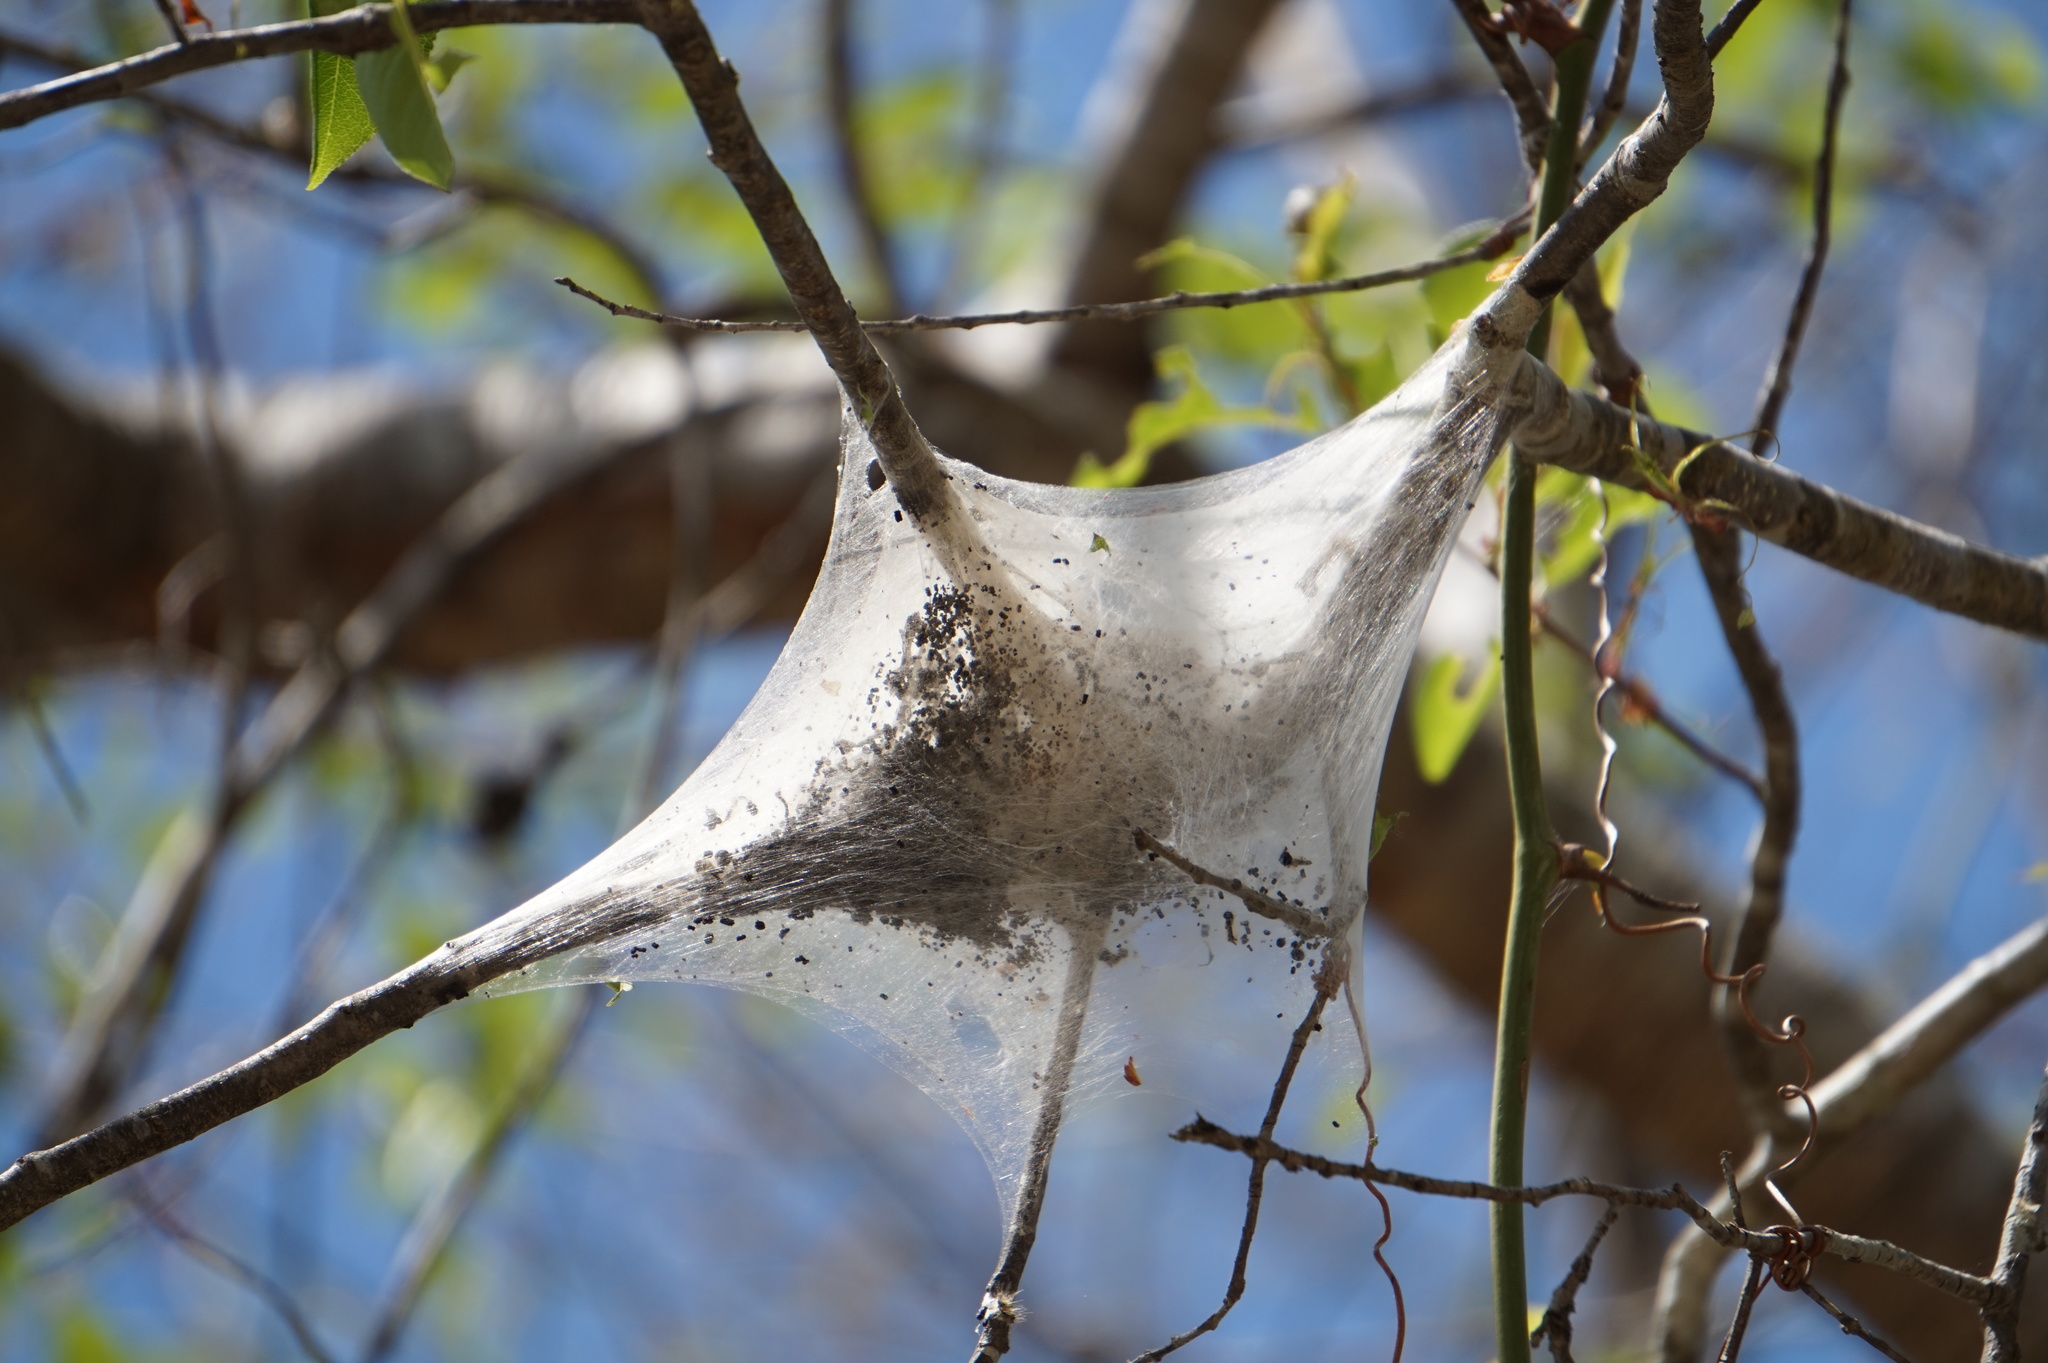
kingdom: Animalia
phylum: Arthropoda
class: Insecta
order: Lepidoptera
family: Lasiocampidae
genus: Malacosoma
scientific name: Malacosoma americana
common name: Eastern tent caterpillar moth
